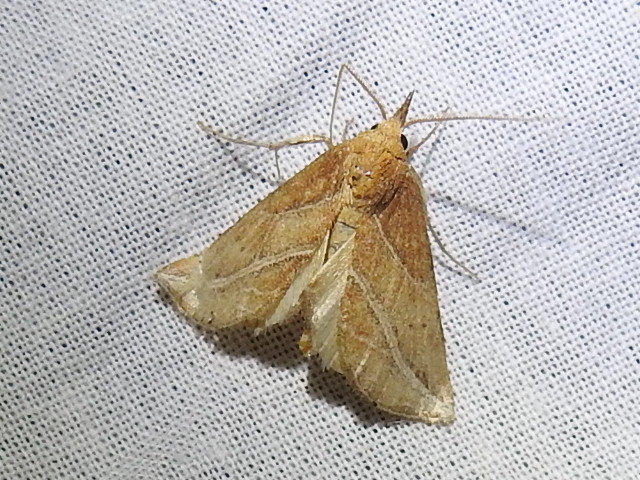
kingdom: Animalia
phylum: Arthropoda
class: Insecta
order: Lepidoptera
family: Erebidae
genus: Phyprosopus
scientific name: Phyprosopus callitrichoides
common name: Curved-lined owlet
